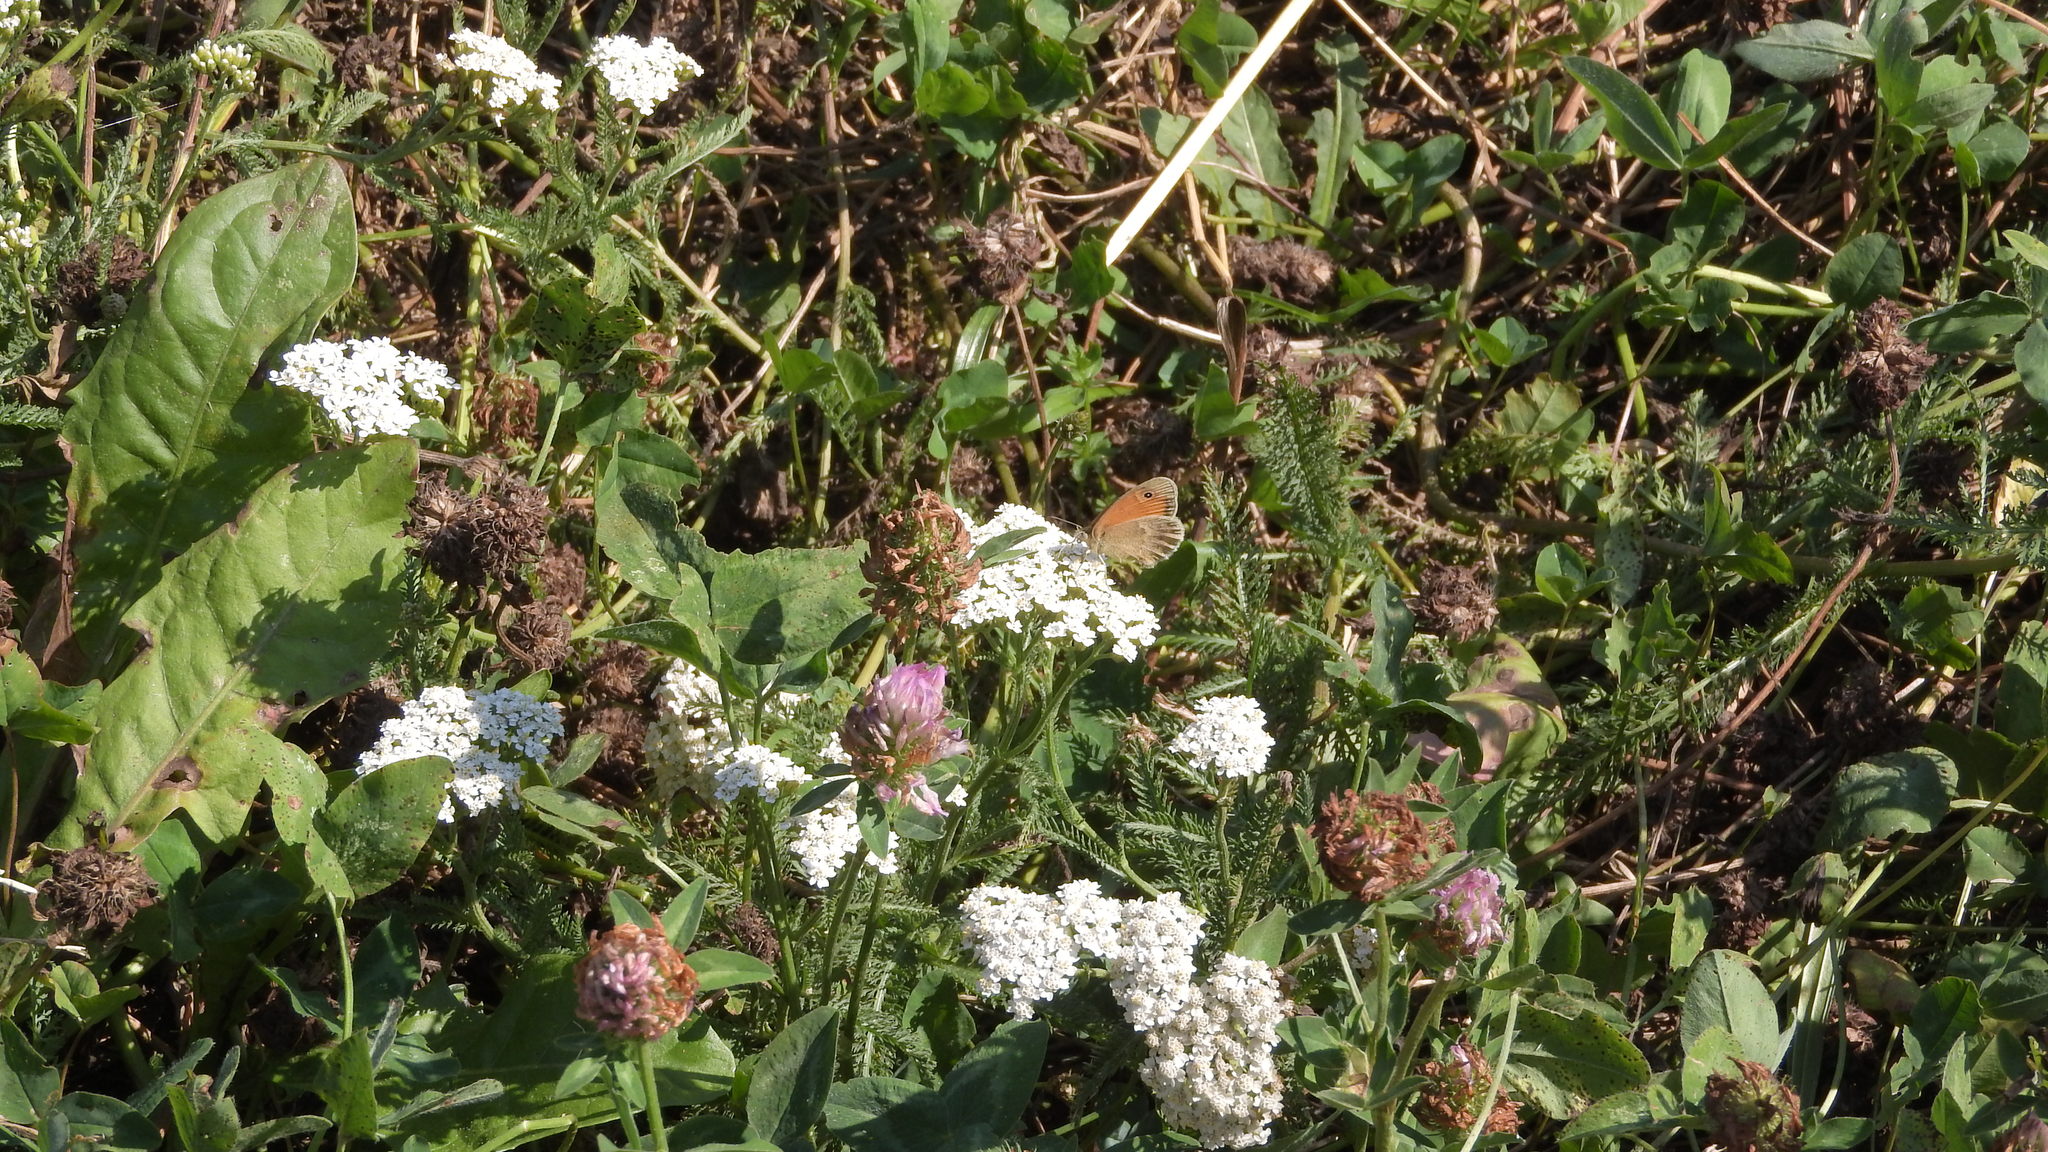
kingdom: Animalia
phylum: Arthropoda
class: Insecta
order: Lepidoptera
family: Nymphalidae
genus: Coenonympha
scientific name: Coenonympha pamphilus
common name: Small heath
